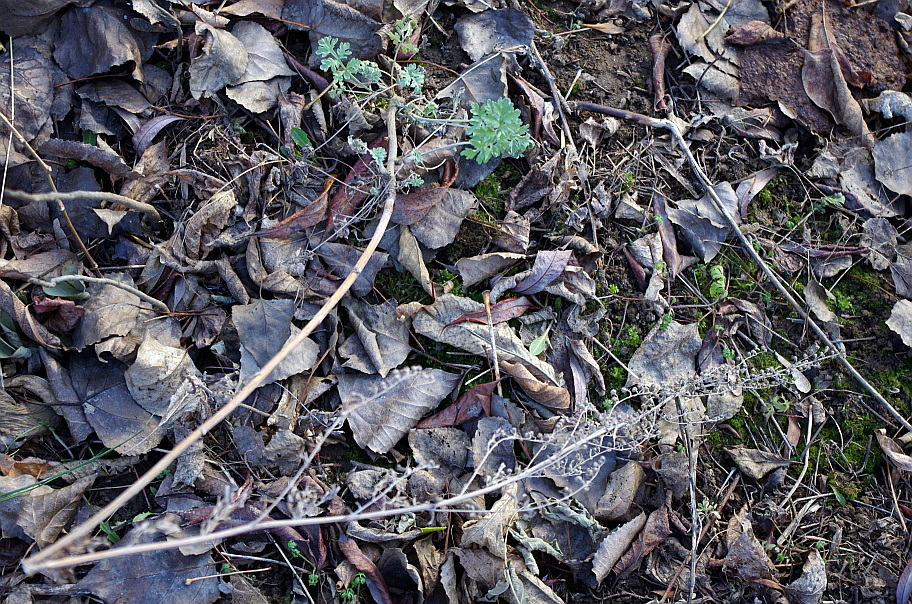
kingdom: Plantae
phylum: Tracheophyta
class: Magnoliopsida
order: Asterales
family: Asteraceae
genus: Artemisia
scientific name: Artemisia absinthium
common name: Wormwood
